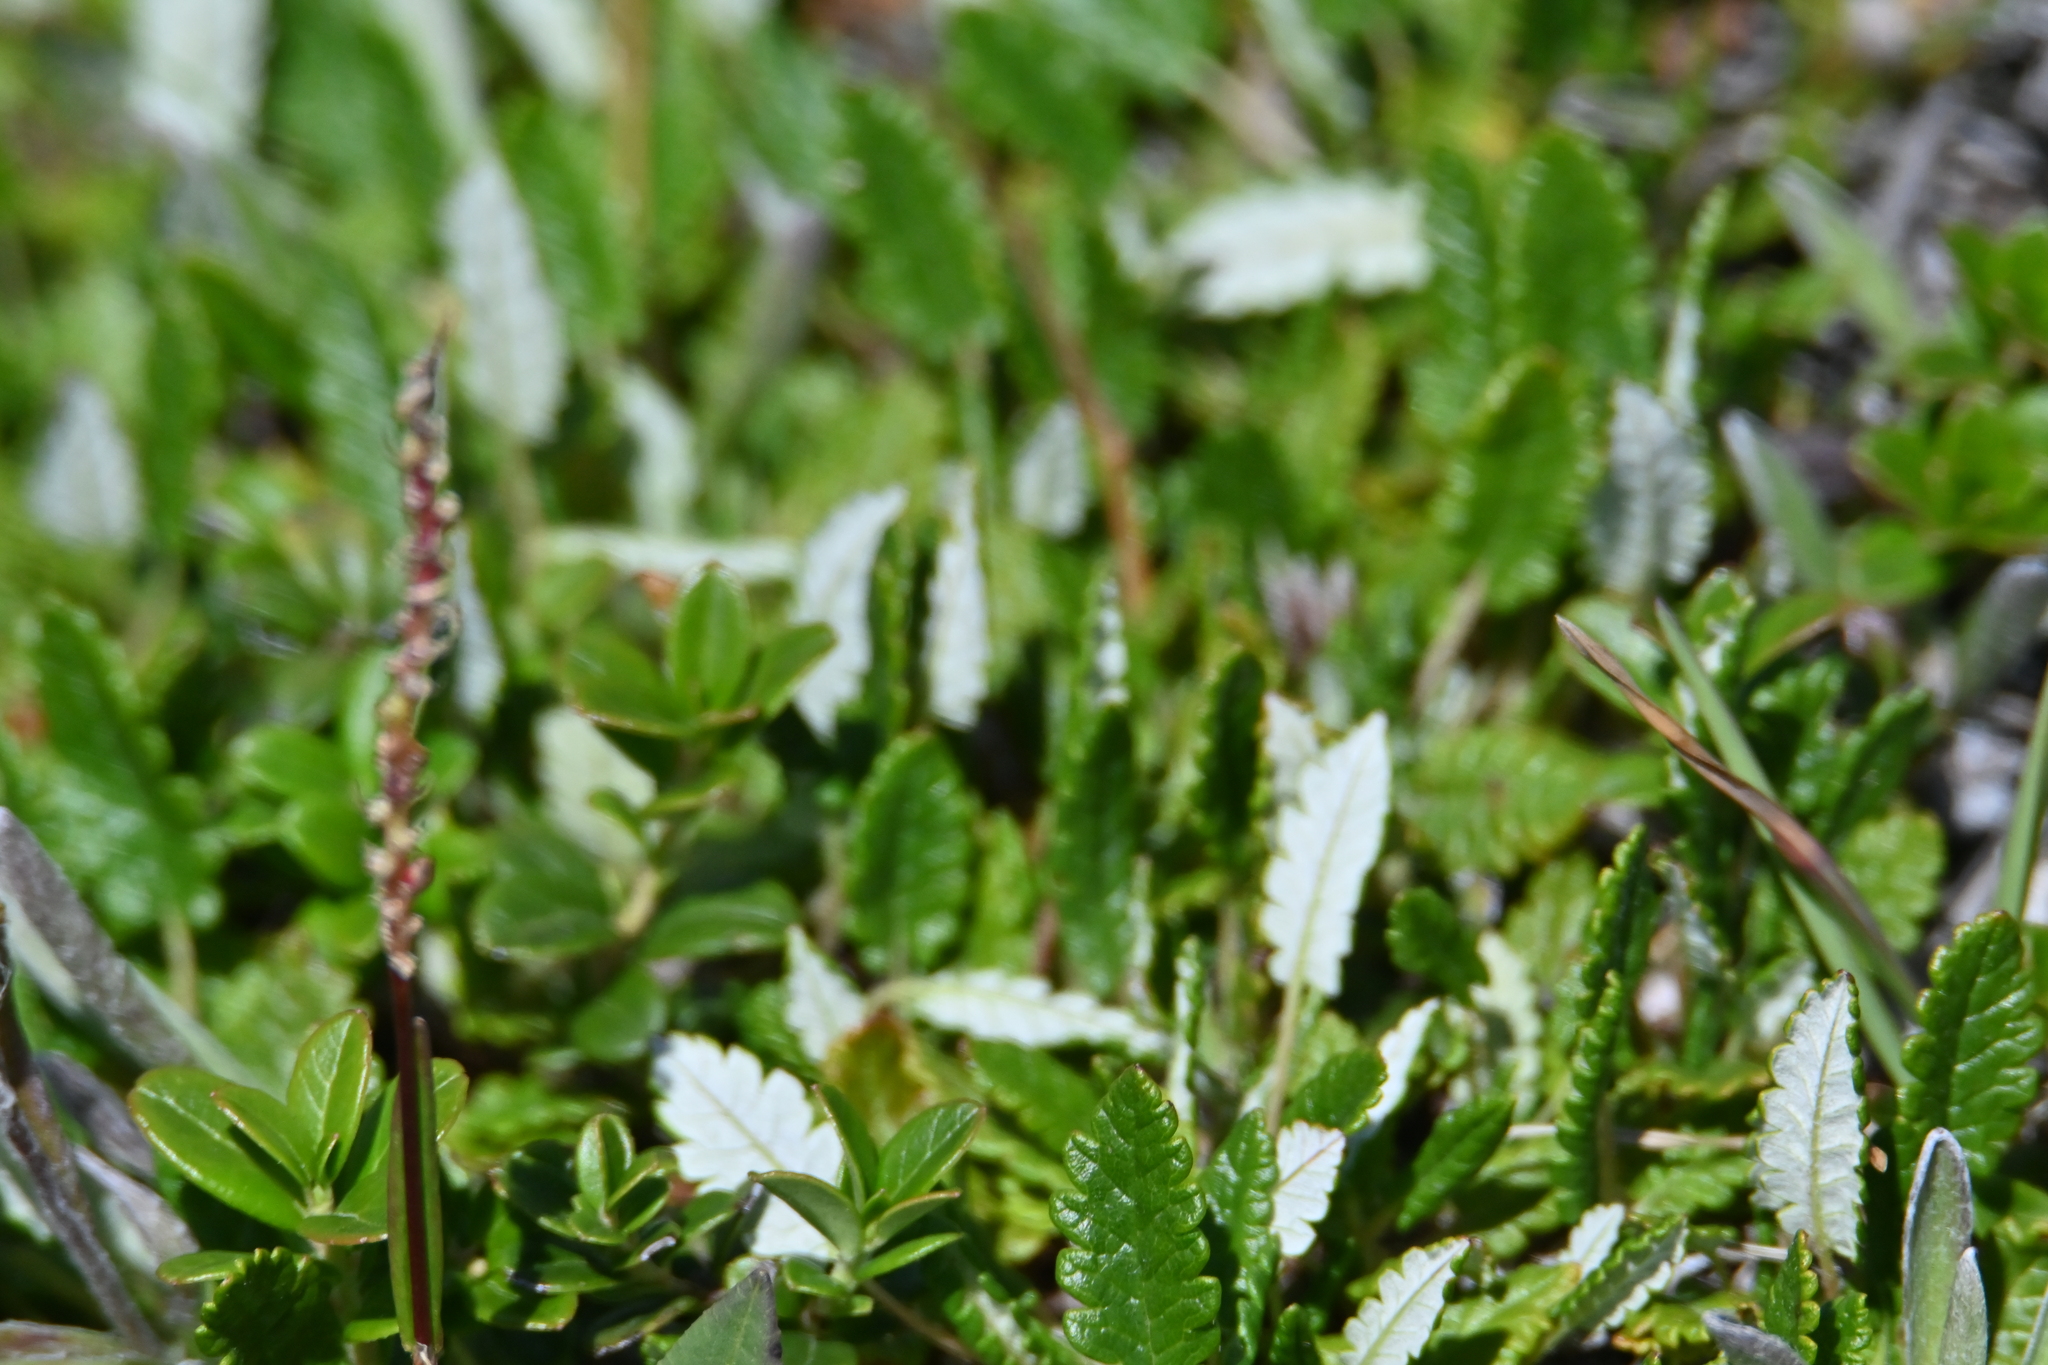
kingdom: Plantae
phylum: Tracheophyta
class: Magnoliopsida
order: Rosales
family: Rosaceae
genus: Dryas
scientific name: Dryas octopetala
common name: Eight-petal mountain-avens
